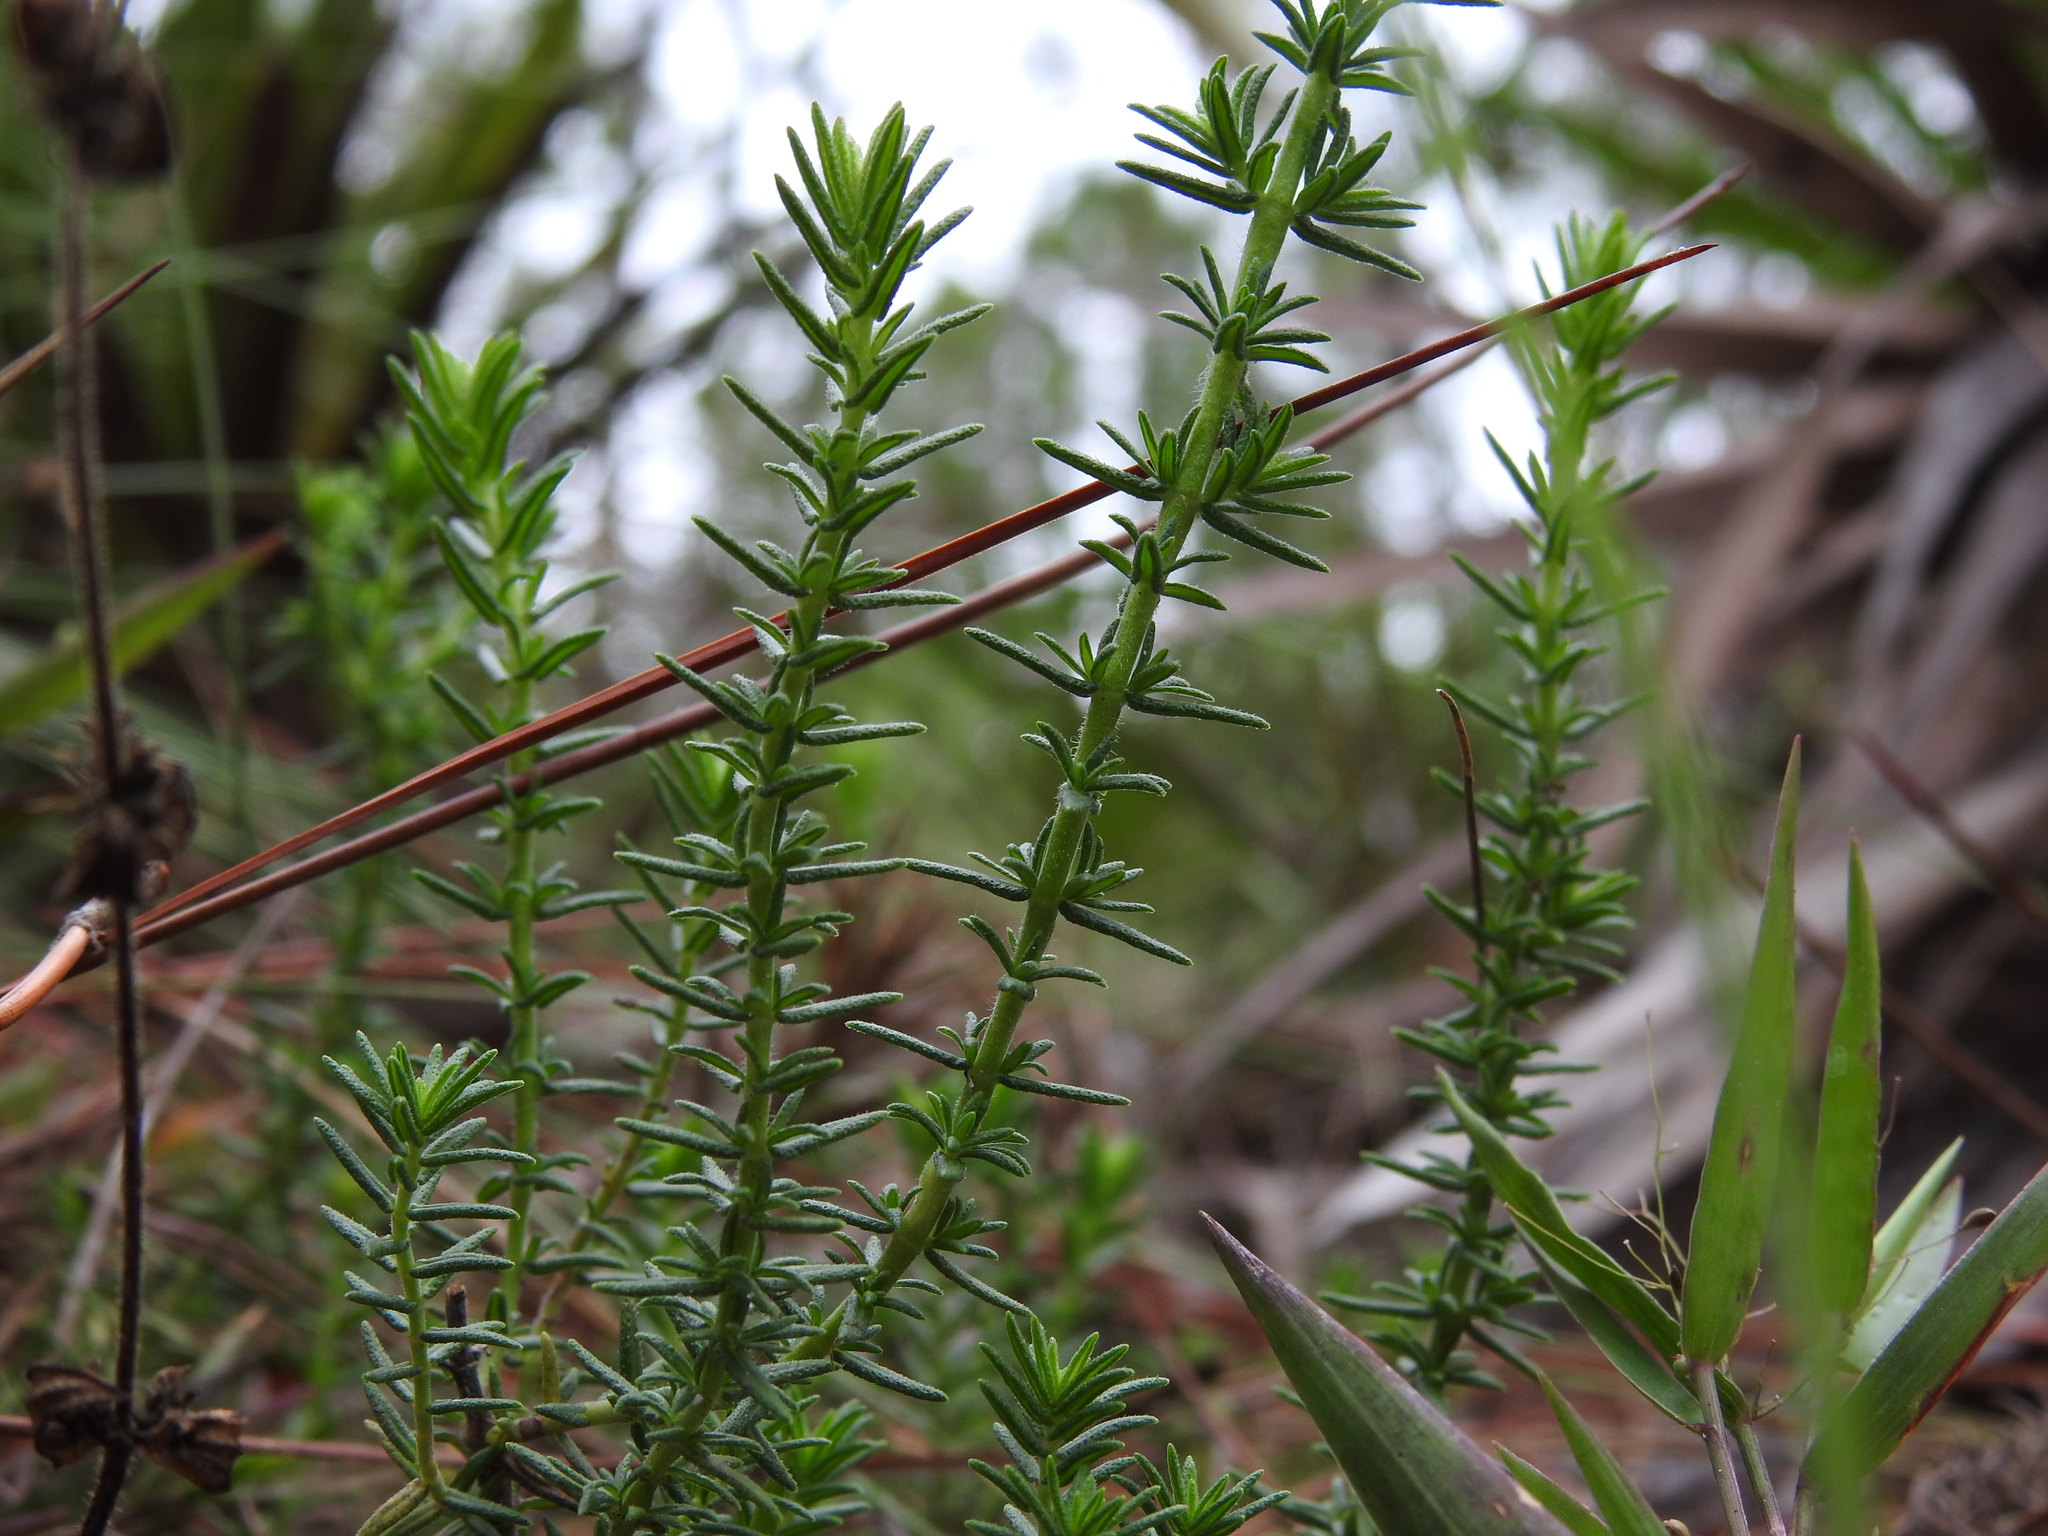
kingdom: Plantae
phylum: Tracheophyta
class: Magnoliopsida
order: Lamiales
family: Lamiaceae
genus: Piloblephis
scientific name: Piloblephis rigida
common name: Wild pennyroyal
